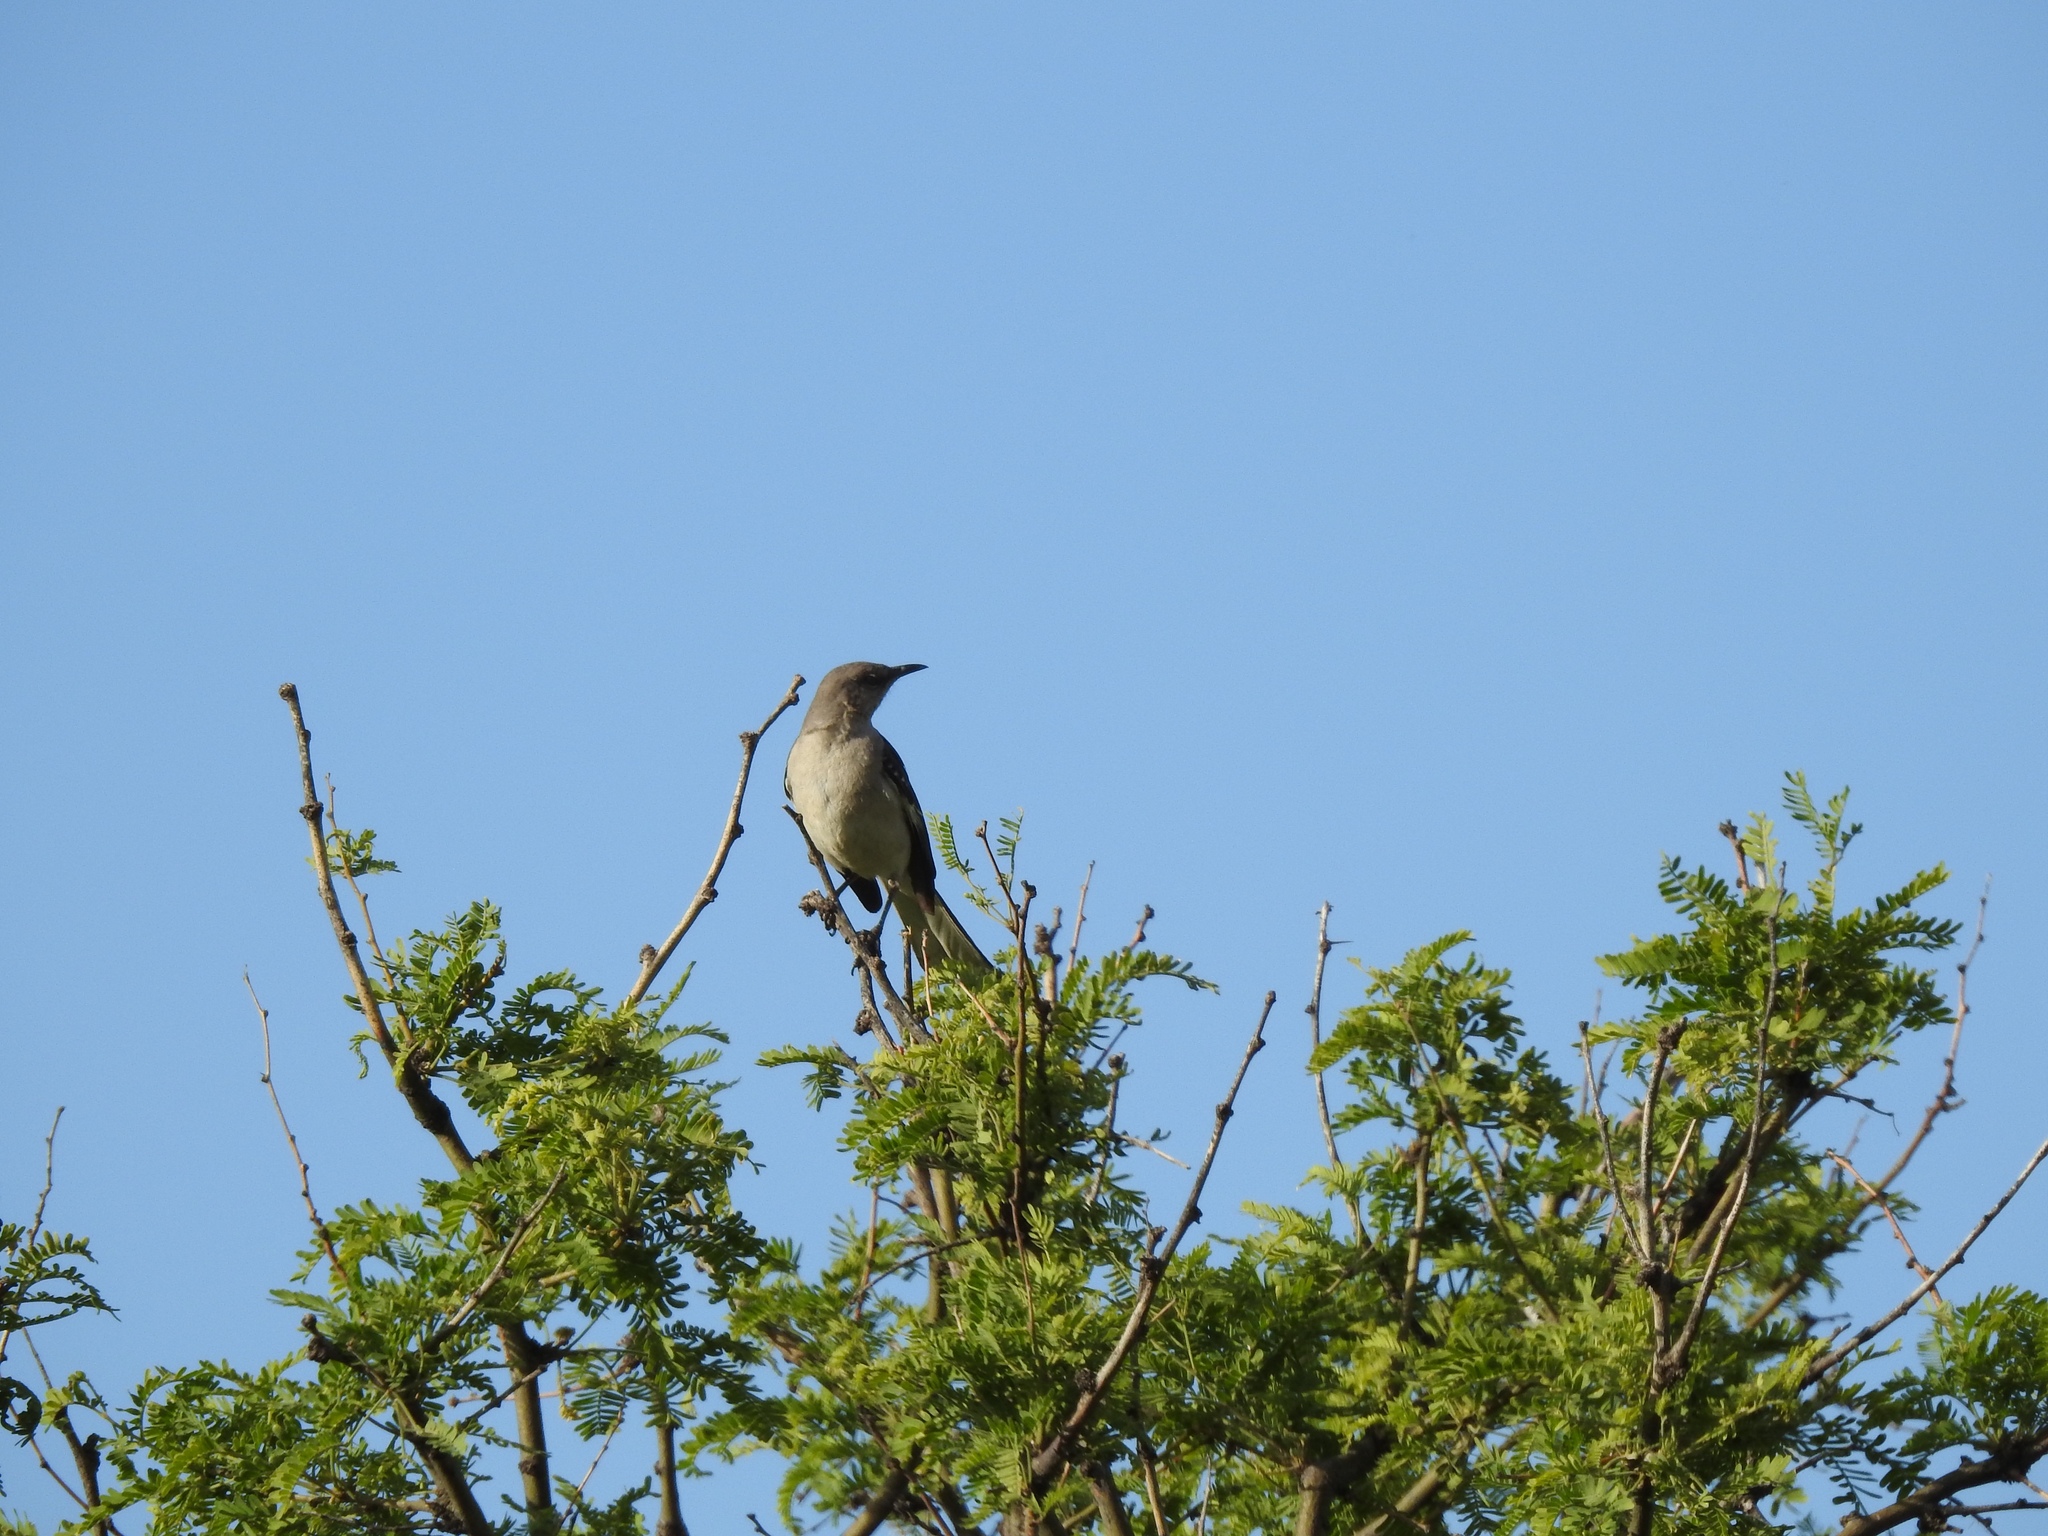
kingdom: Animalia
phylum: Chordata
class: Aves
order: Passeriformes
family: Mimidae
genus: Mimus
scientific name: Mimus polyglottos
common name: Northern mockingbird
